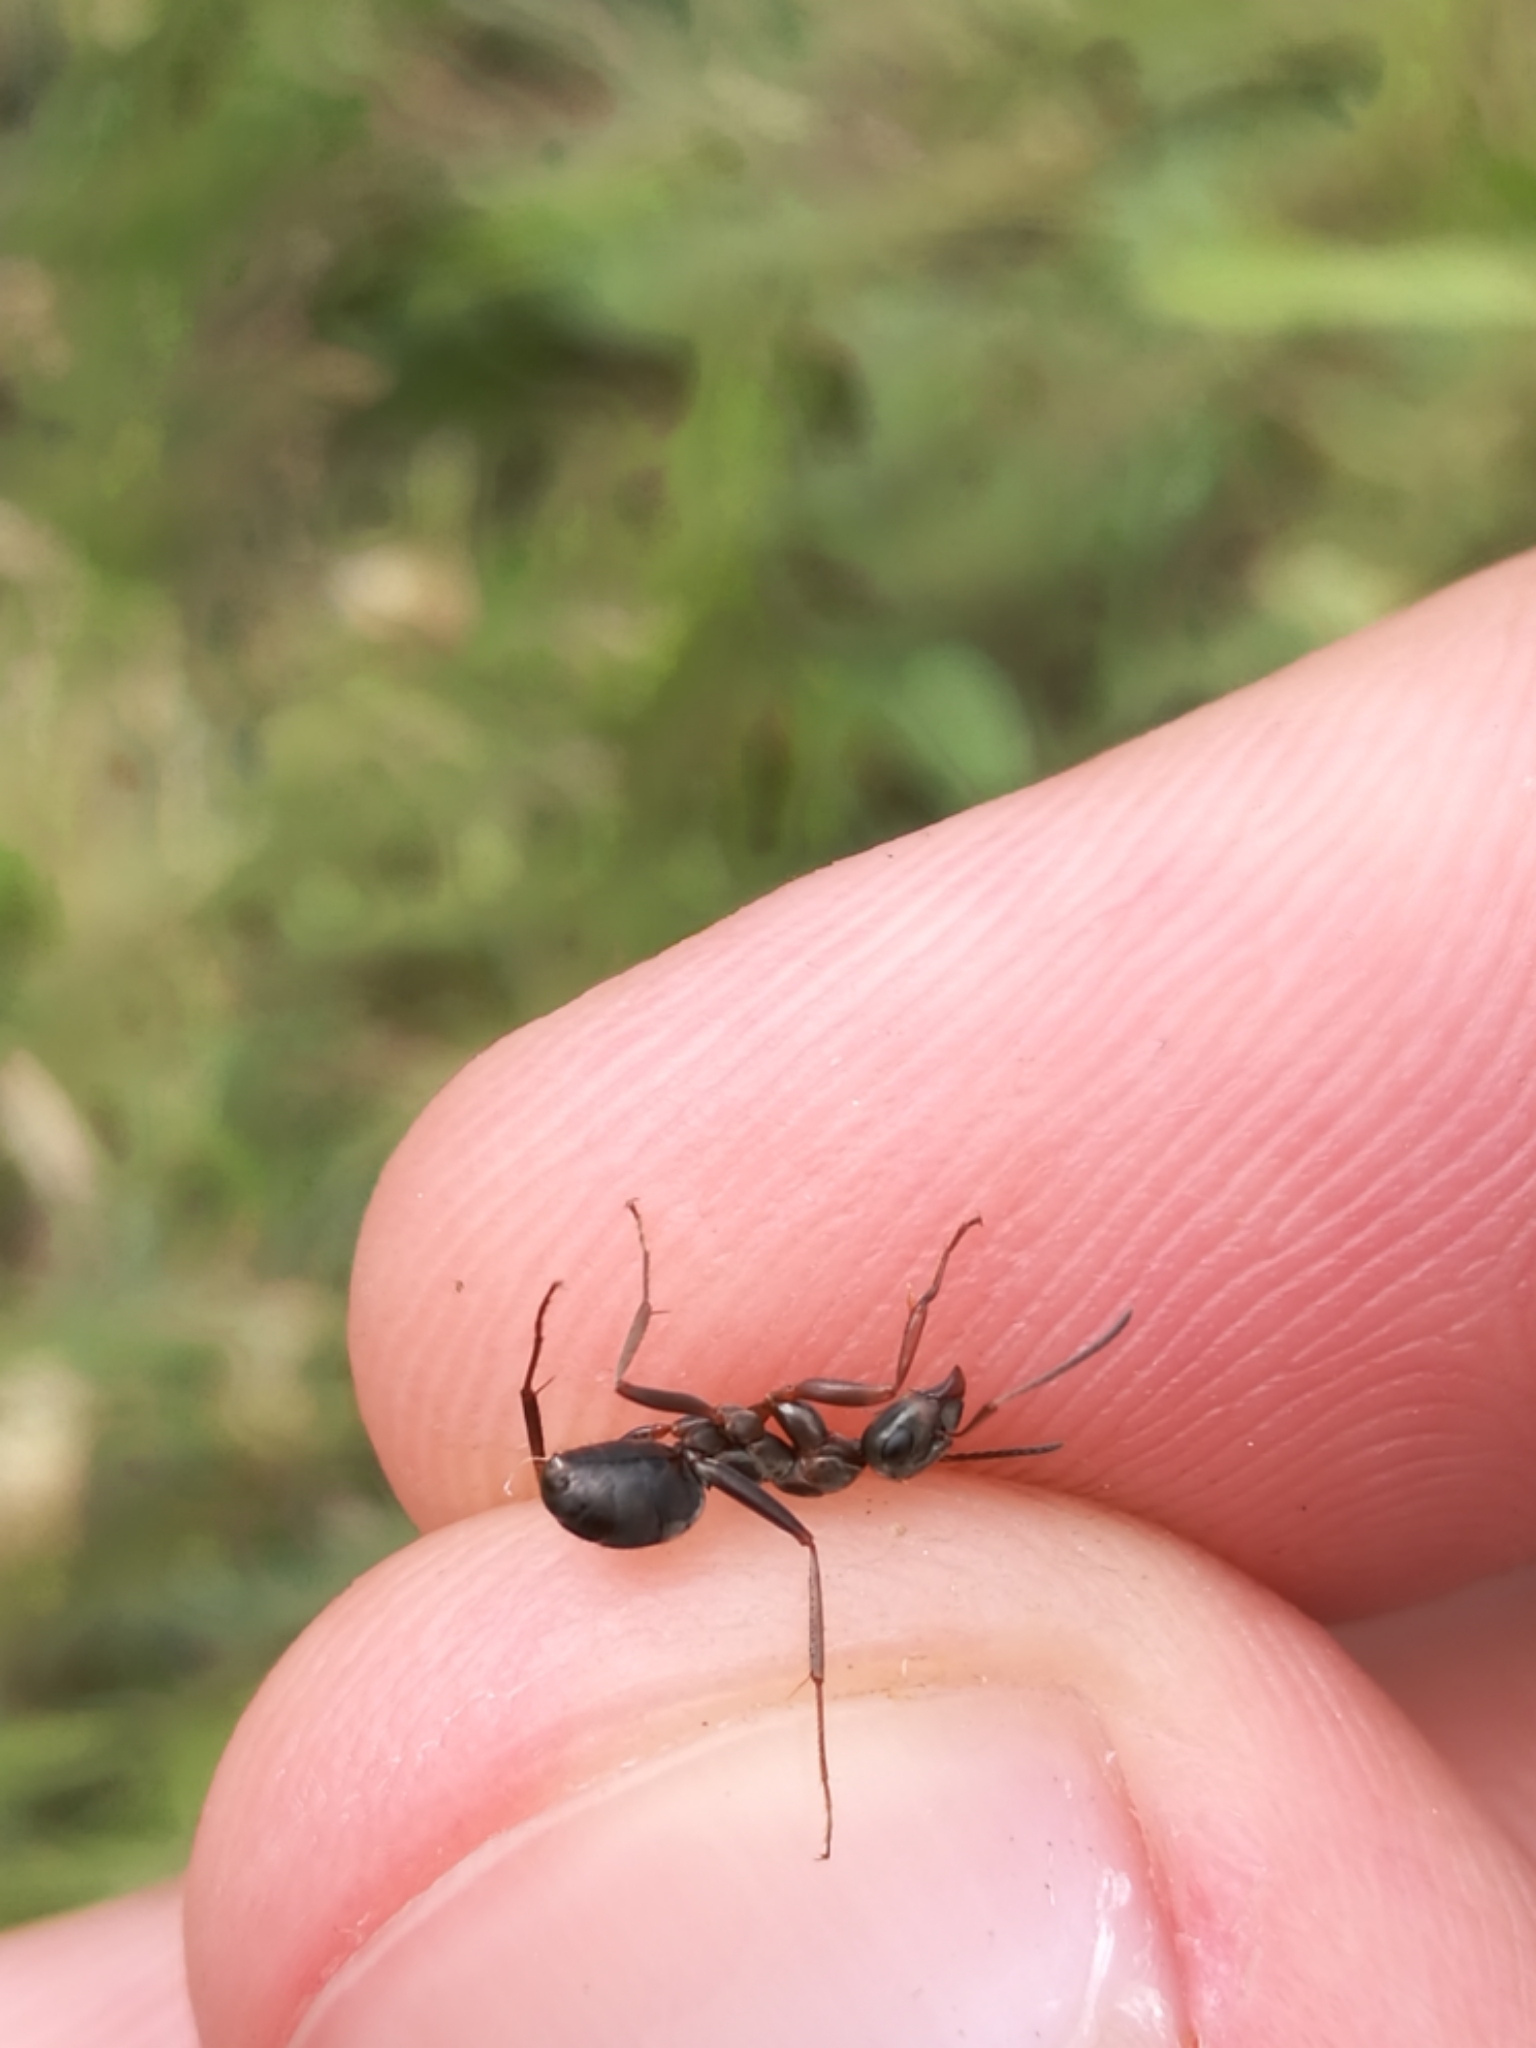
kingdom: Animalia
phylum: Arthropoda
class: Insecta
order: Hymenoptera
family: Formicidae
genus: Formica
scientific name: Formica cunicularia
